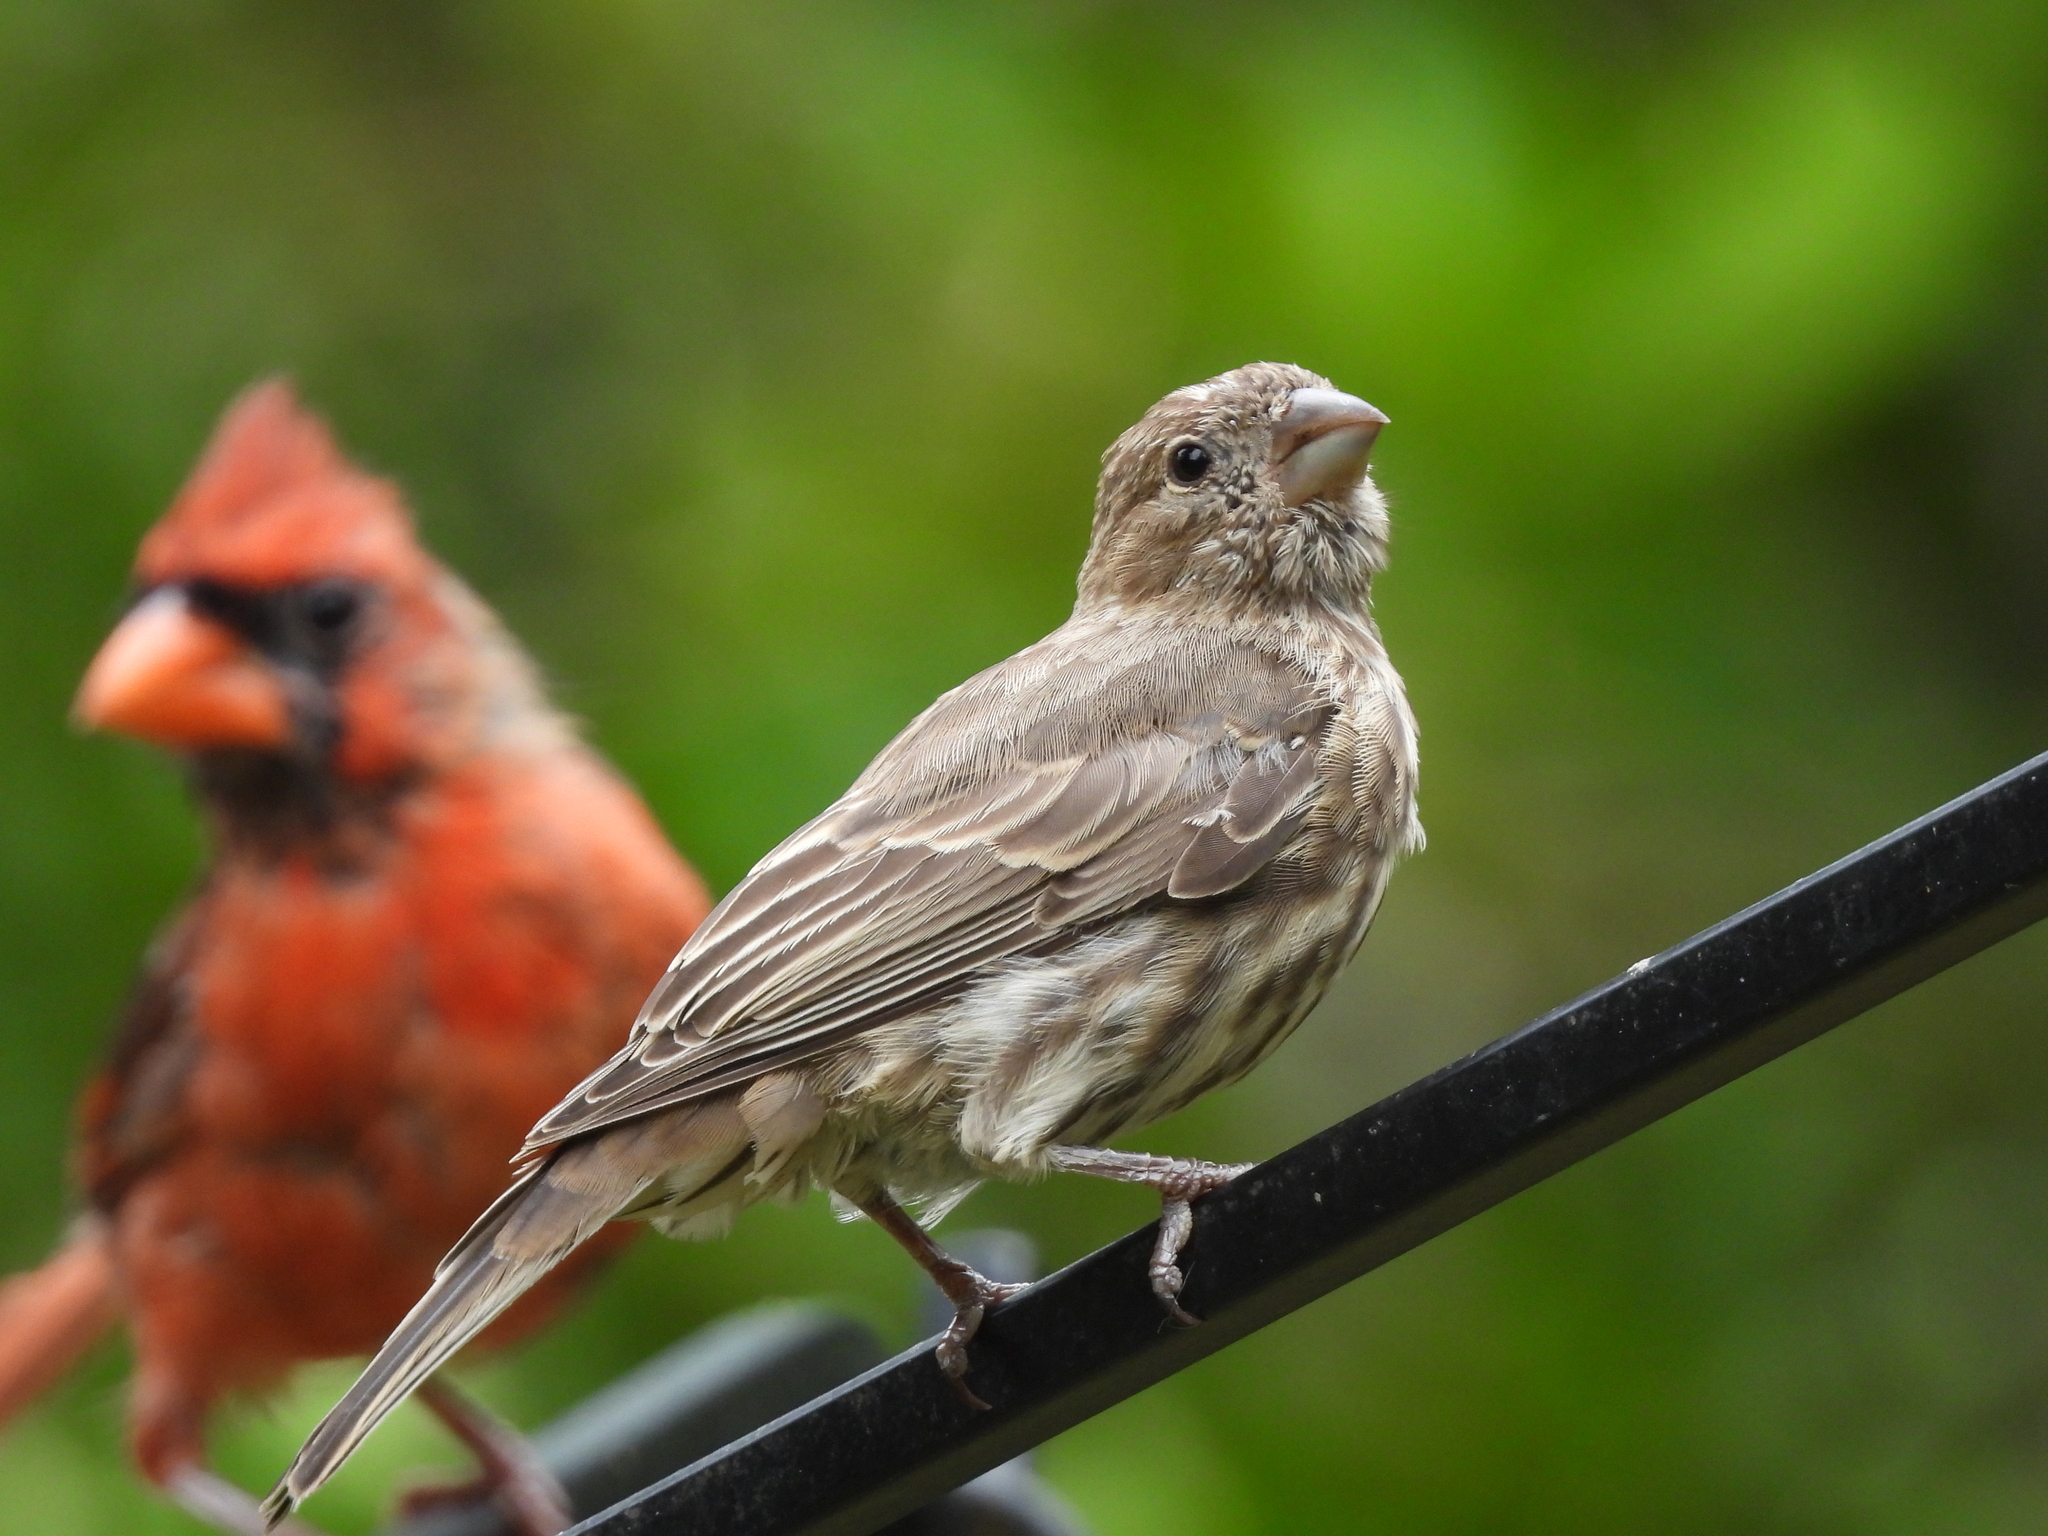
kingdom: Animalia
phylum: Chordata
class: Aves
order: Passeriformes
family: Fringillidae
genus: Haemorhous
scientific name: Haemorhous mexicanus
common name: House finch
